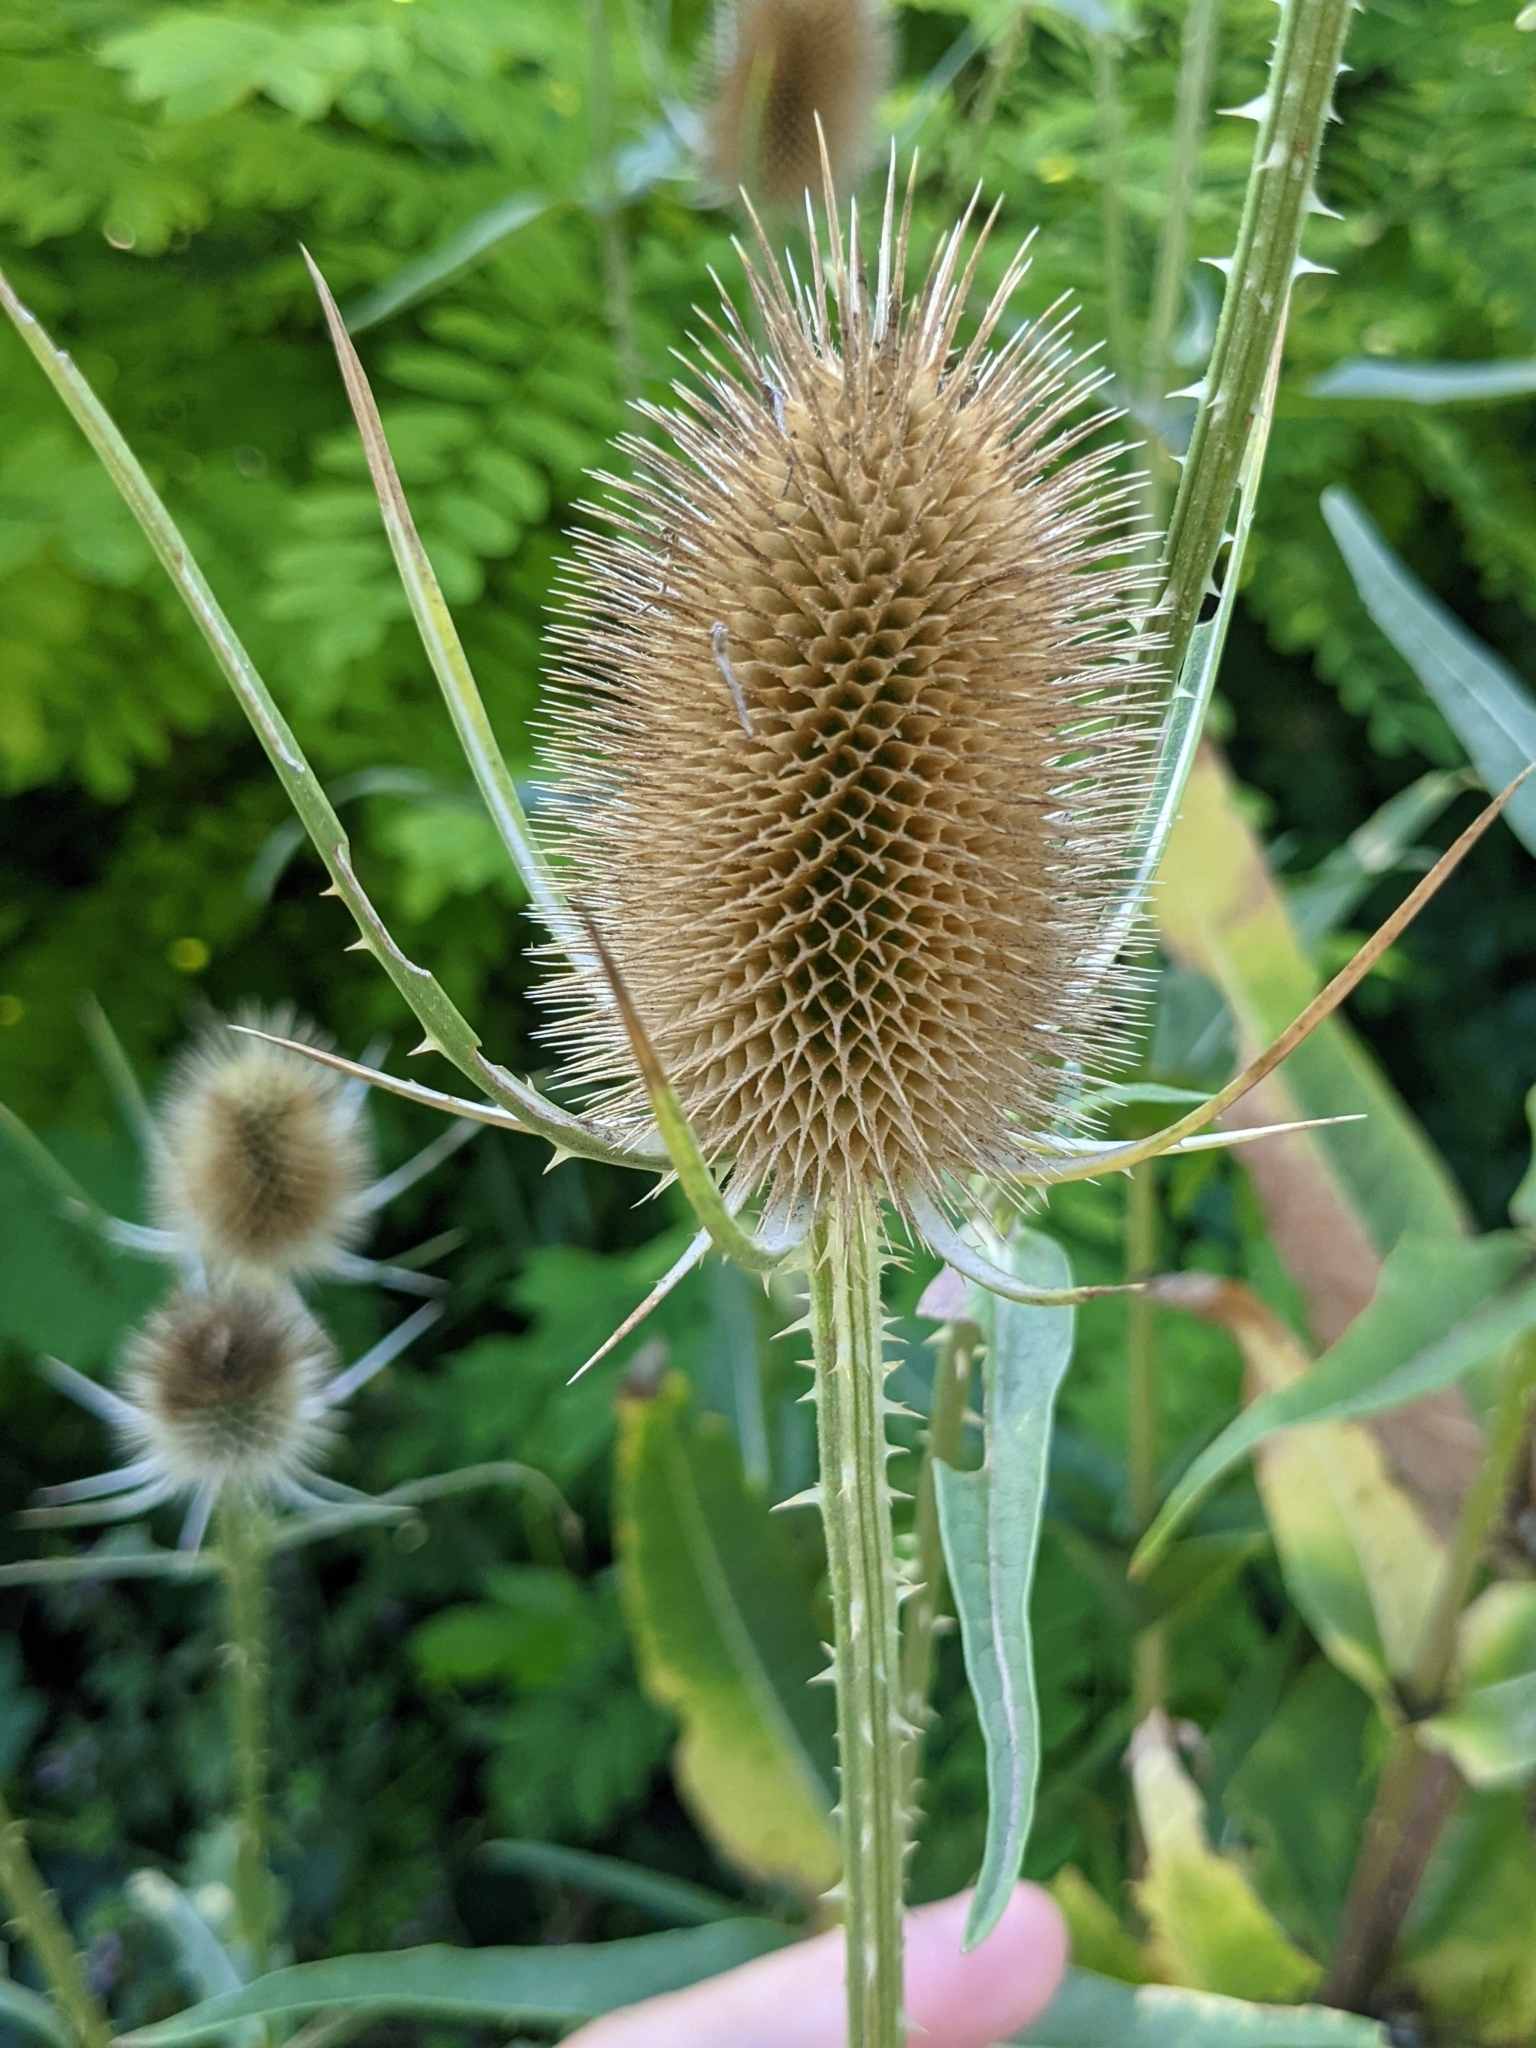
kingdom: Plantae
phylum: Tracheophyta
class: Magnoliopsida
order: Dipsacales
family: Caprifoliaceae
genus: Dipsacus
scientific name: Dipsacus fullonum
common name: Teasel
